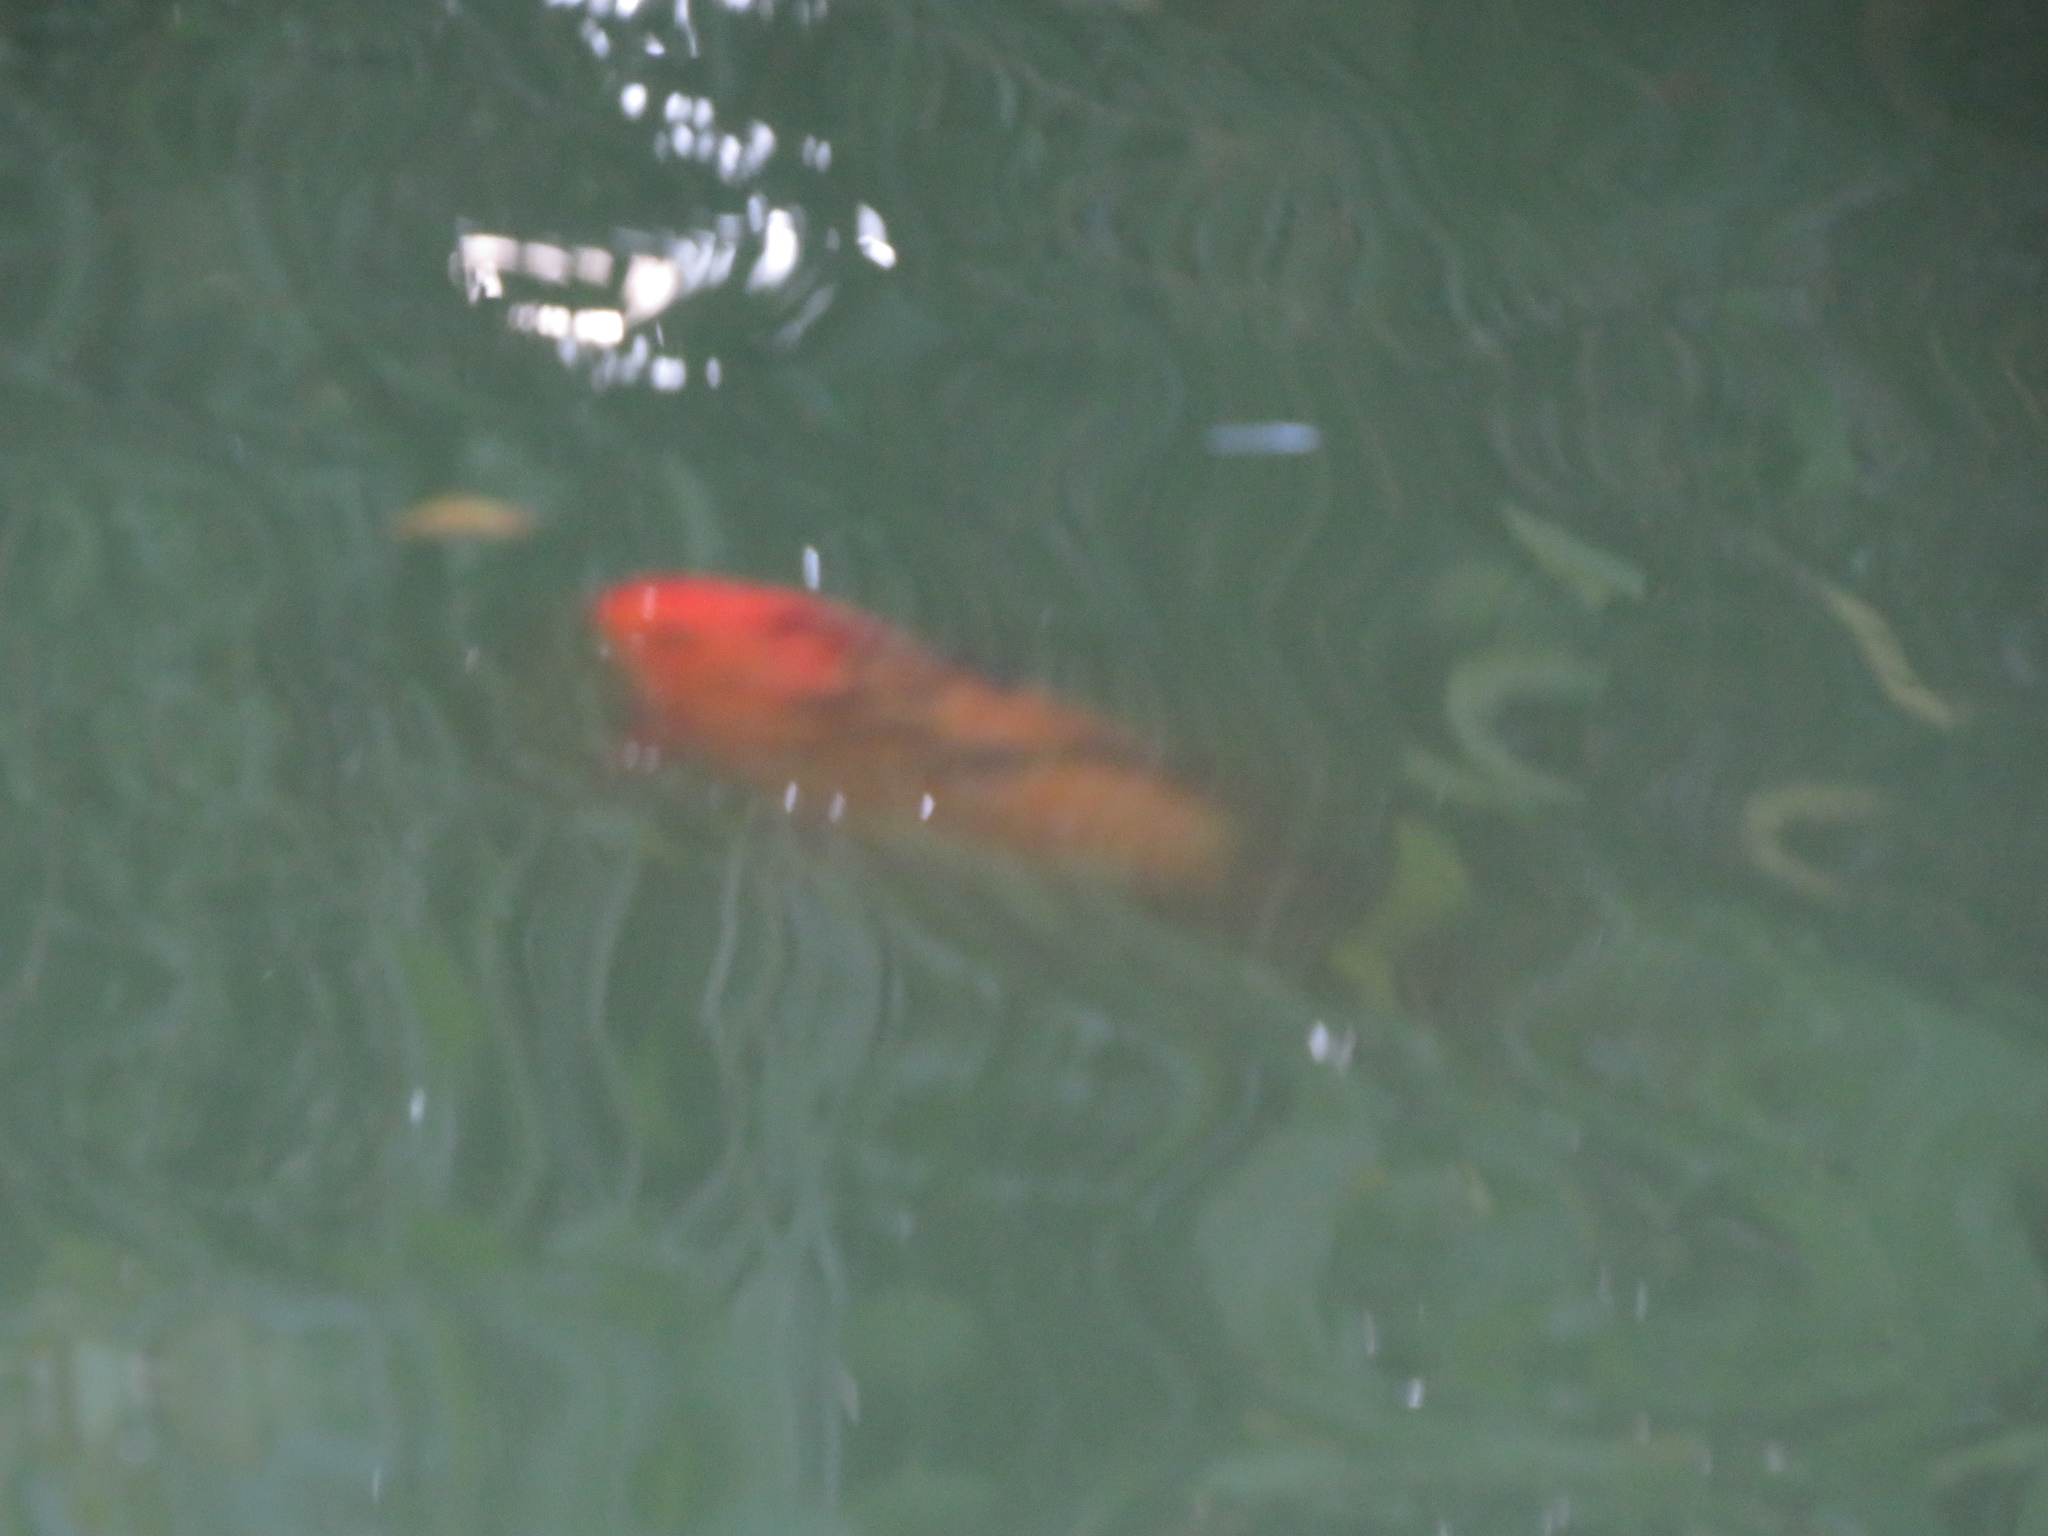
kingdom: Animalia
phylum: Chordata
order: Cypriniformes
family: Cyprinidae
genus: Cyprinus
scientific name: Cyprinus rubrofuscus
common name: Koi
